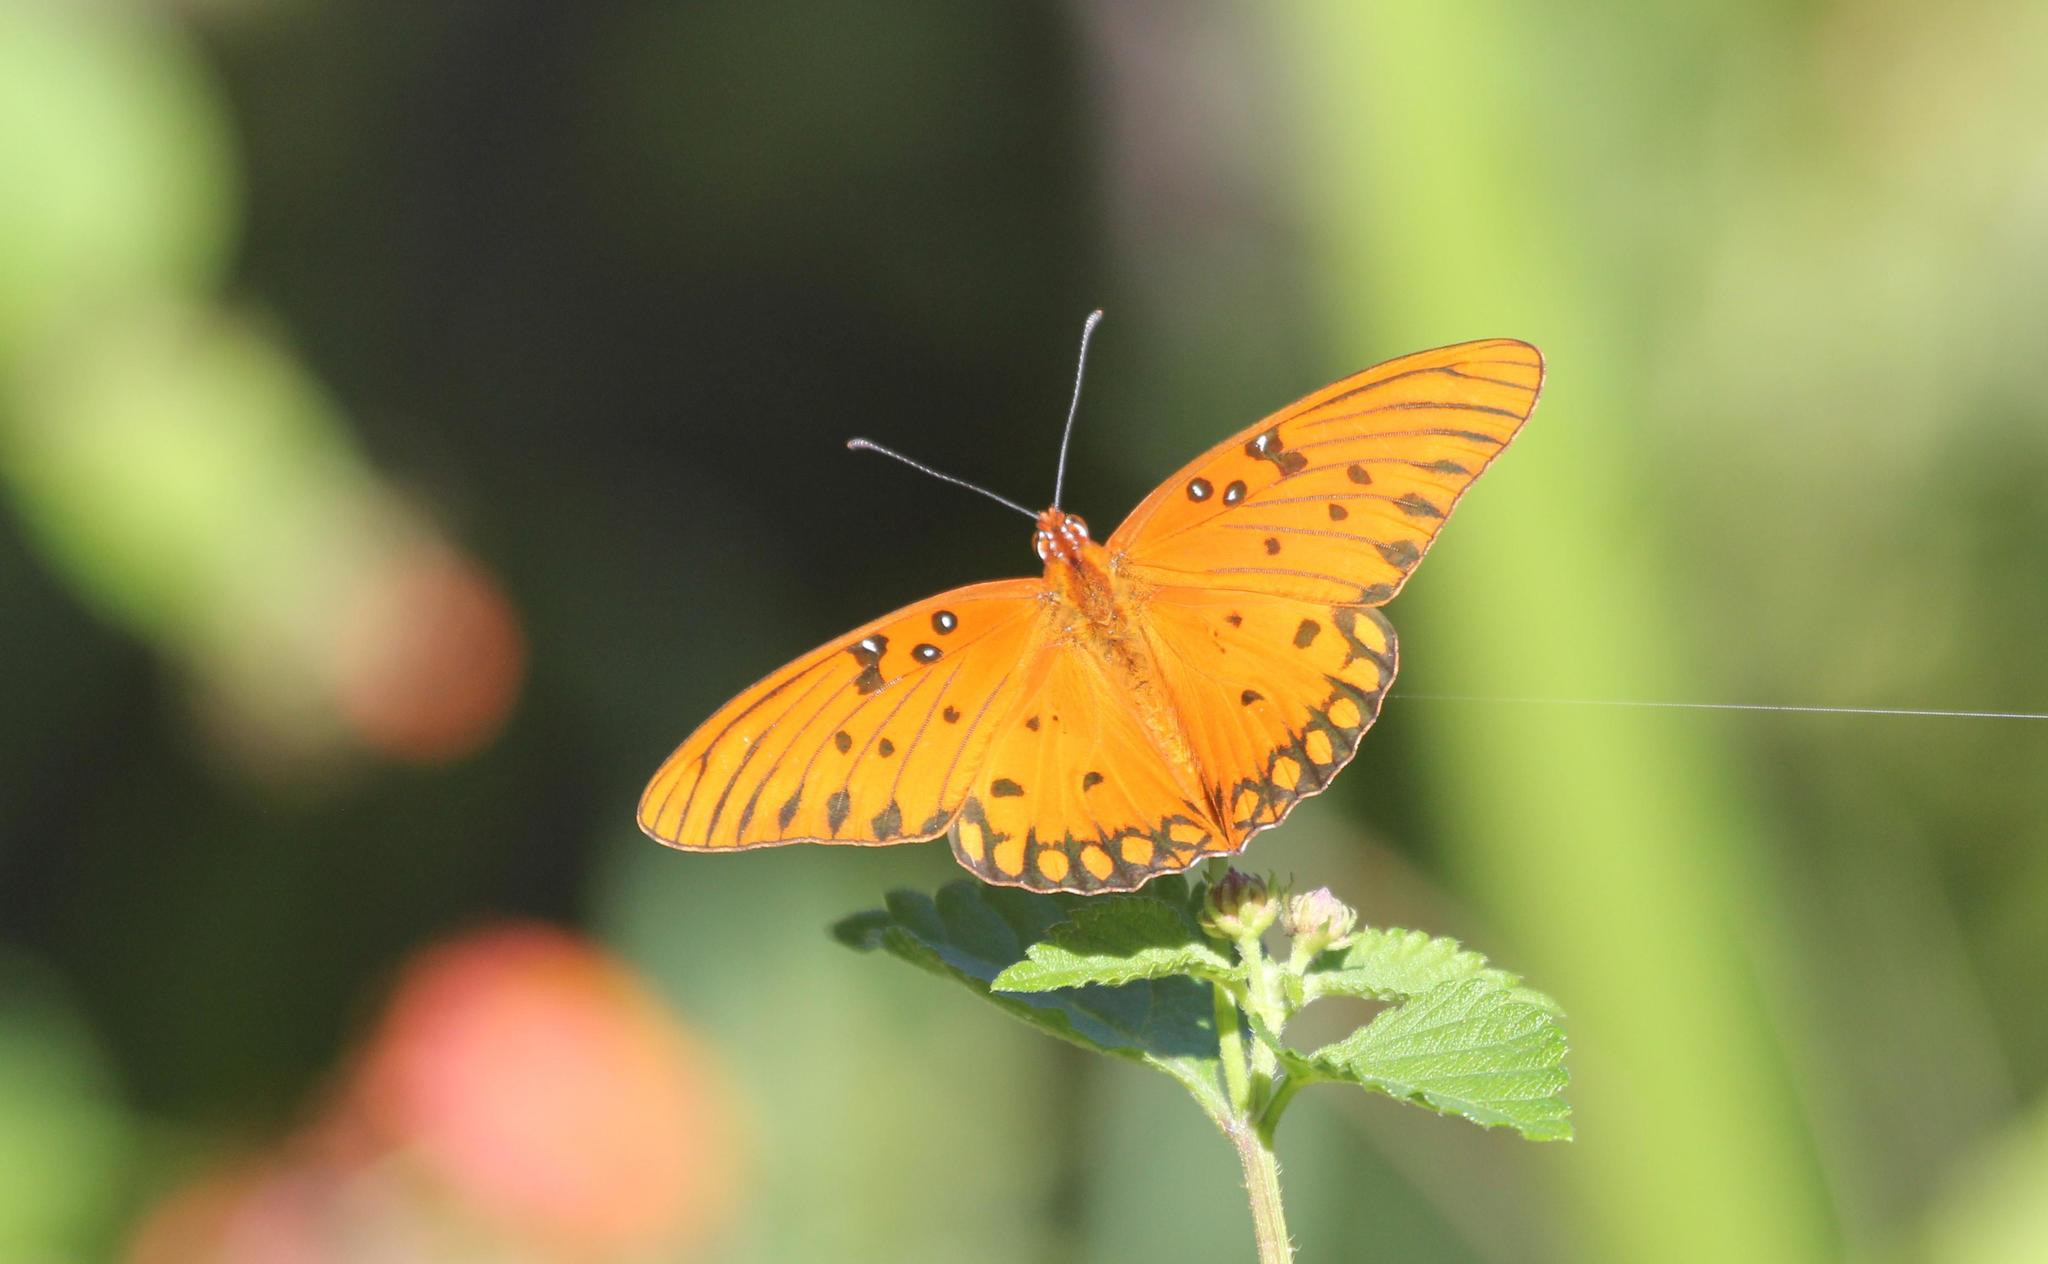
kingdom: Animalia
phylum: Arthropoda
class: Insecta
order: Lepidoptera
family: Nymphalidae
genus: Dione
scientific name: Dione vanillae
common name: Gulf fritillary
